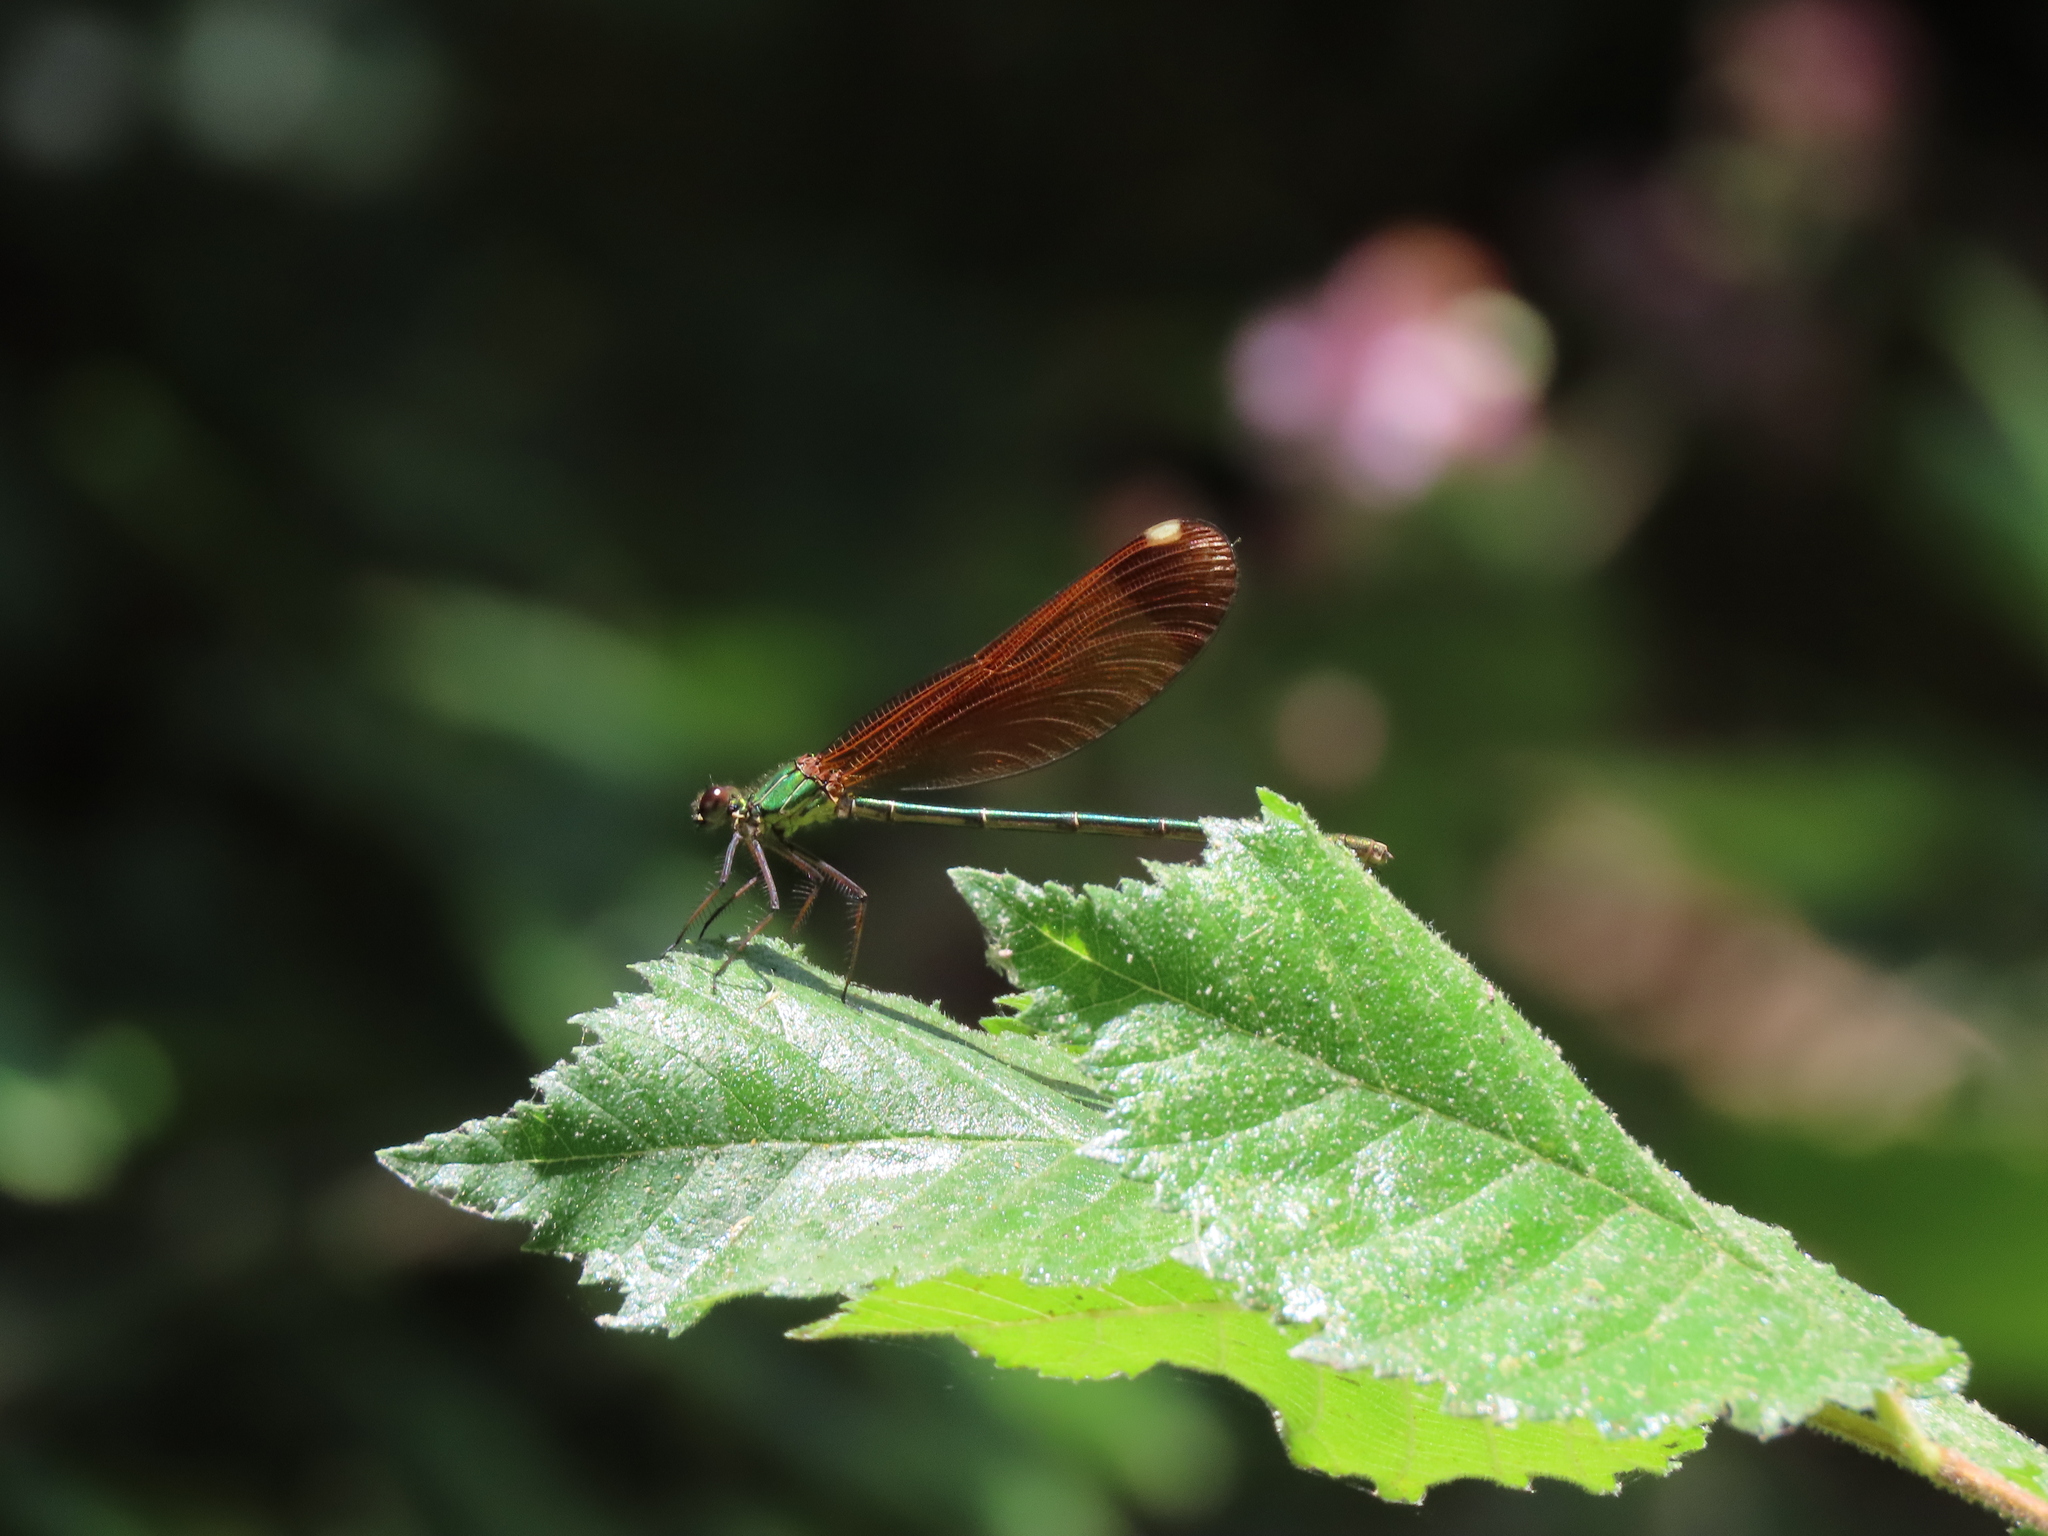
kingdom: Animalia
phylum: Arthropoda
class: Insecta
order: Odonata
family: Calopterygidae
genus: Calopteryx
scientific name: Calopteryx haemorrhoidalis
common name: Copper demoiselle
